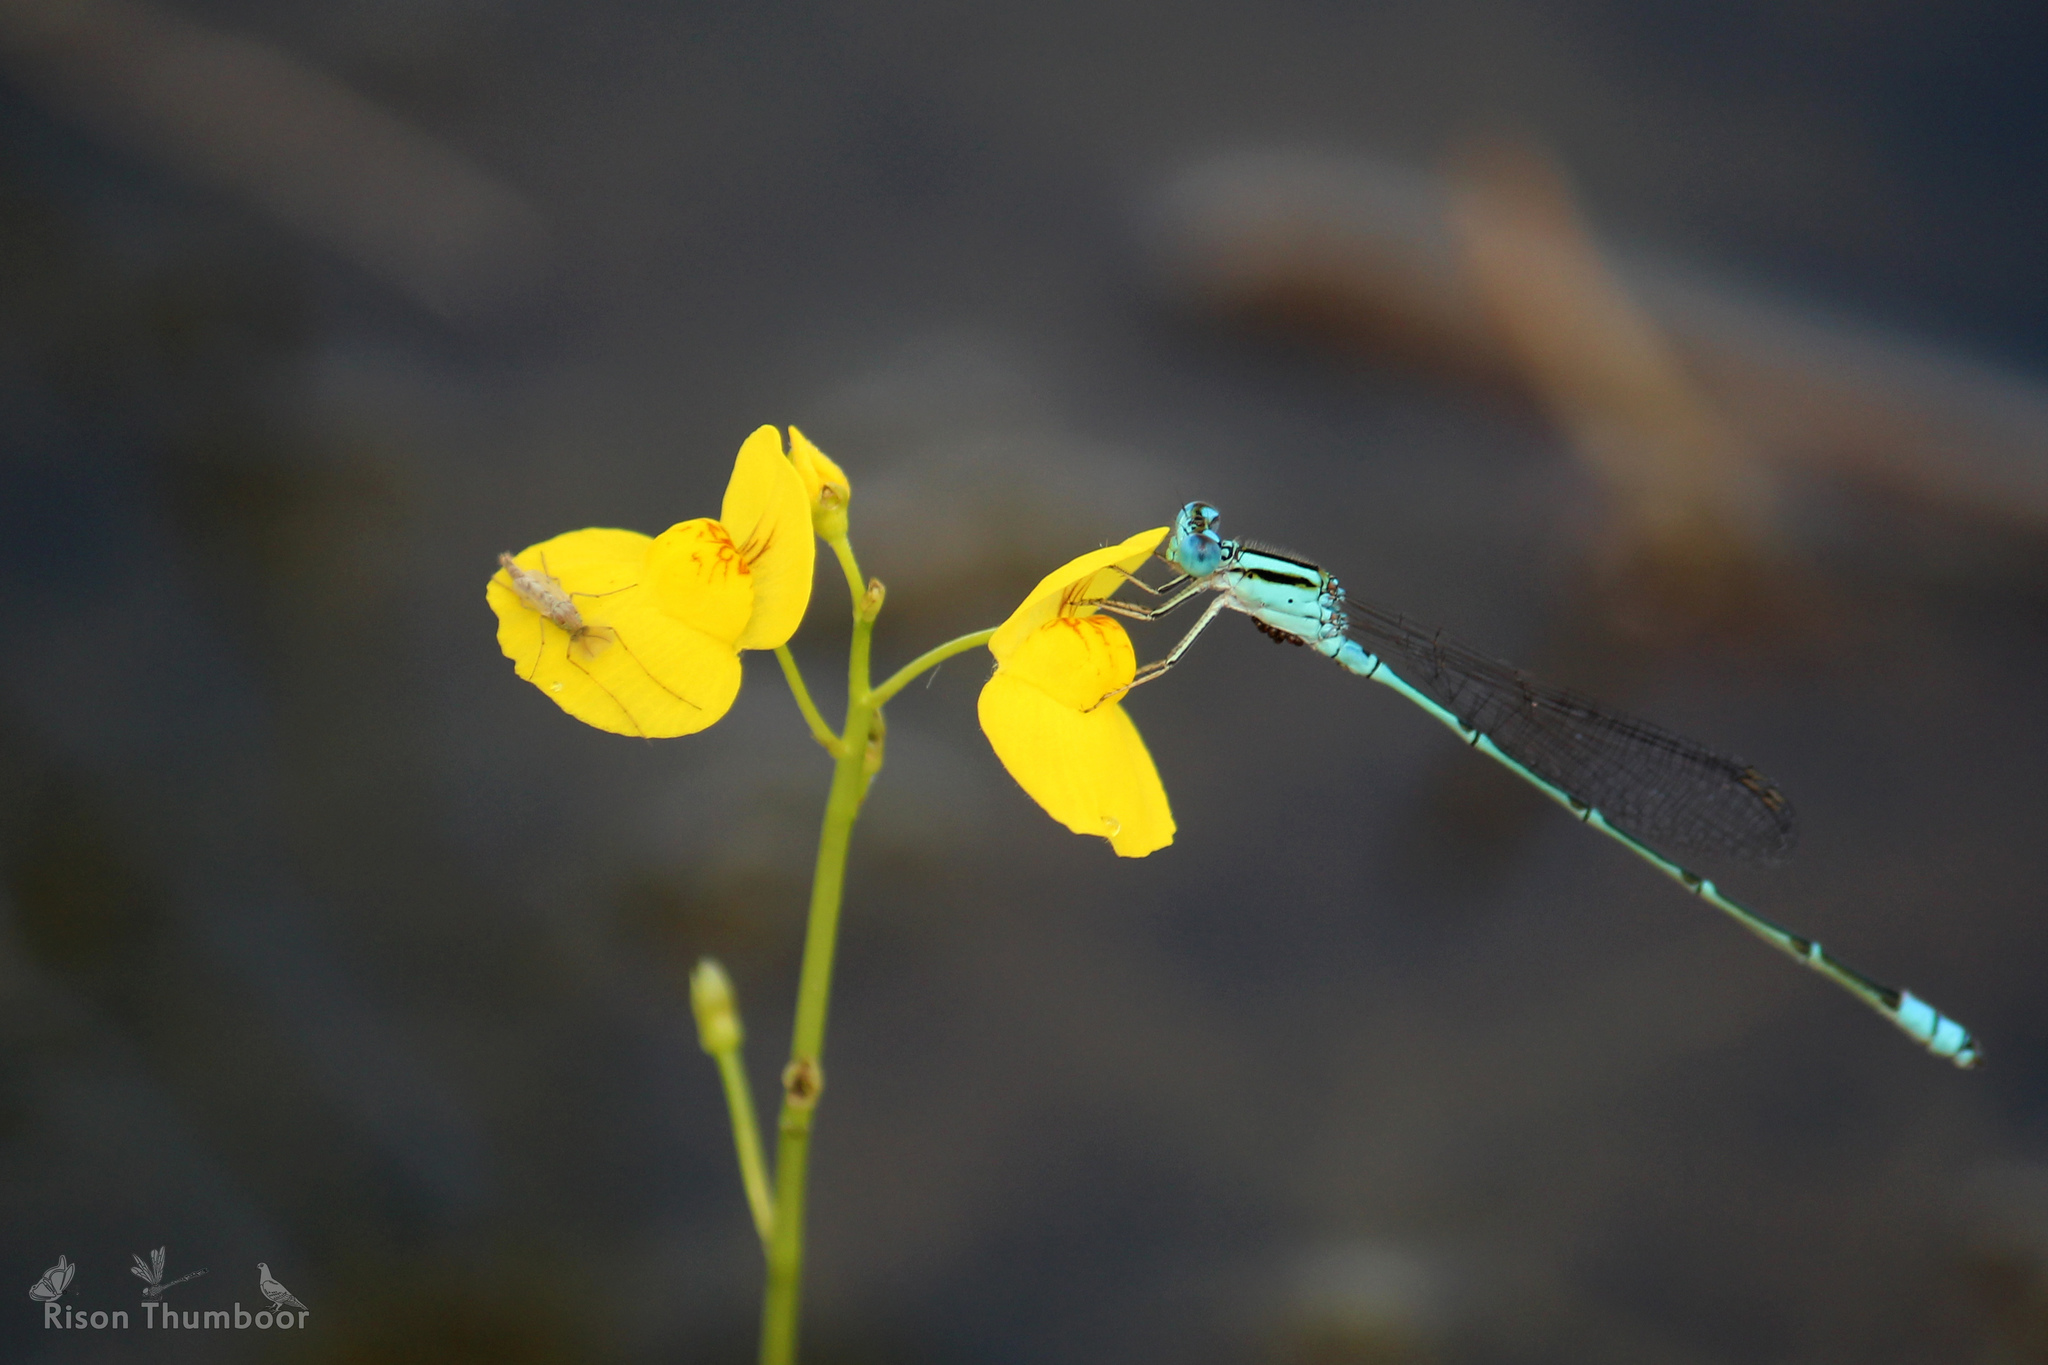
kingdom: Animalia
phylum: Arthropoda
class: Insecta
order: Odonata
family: Coenagrionidae
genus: Pseudagrion
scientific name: Pseudagrion microcephalum
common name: Blue riverdamsel
